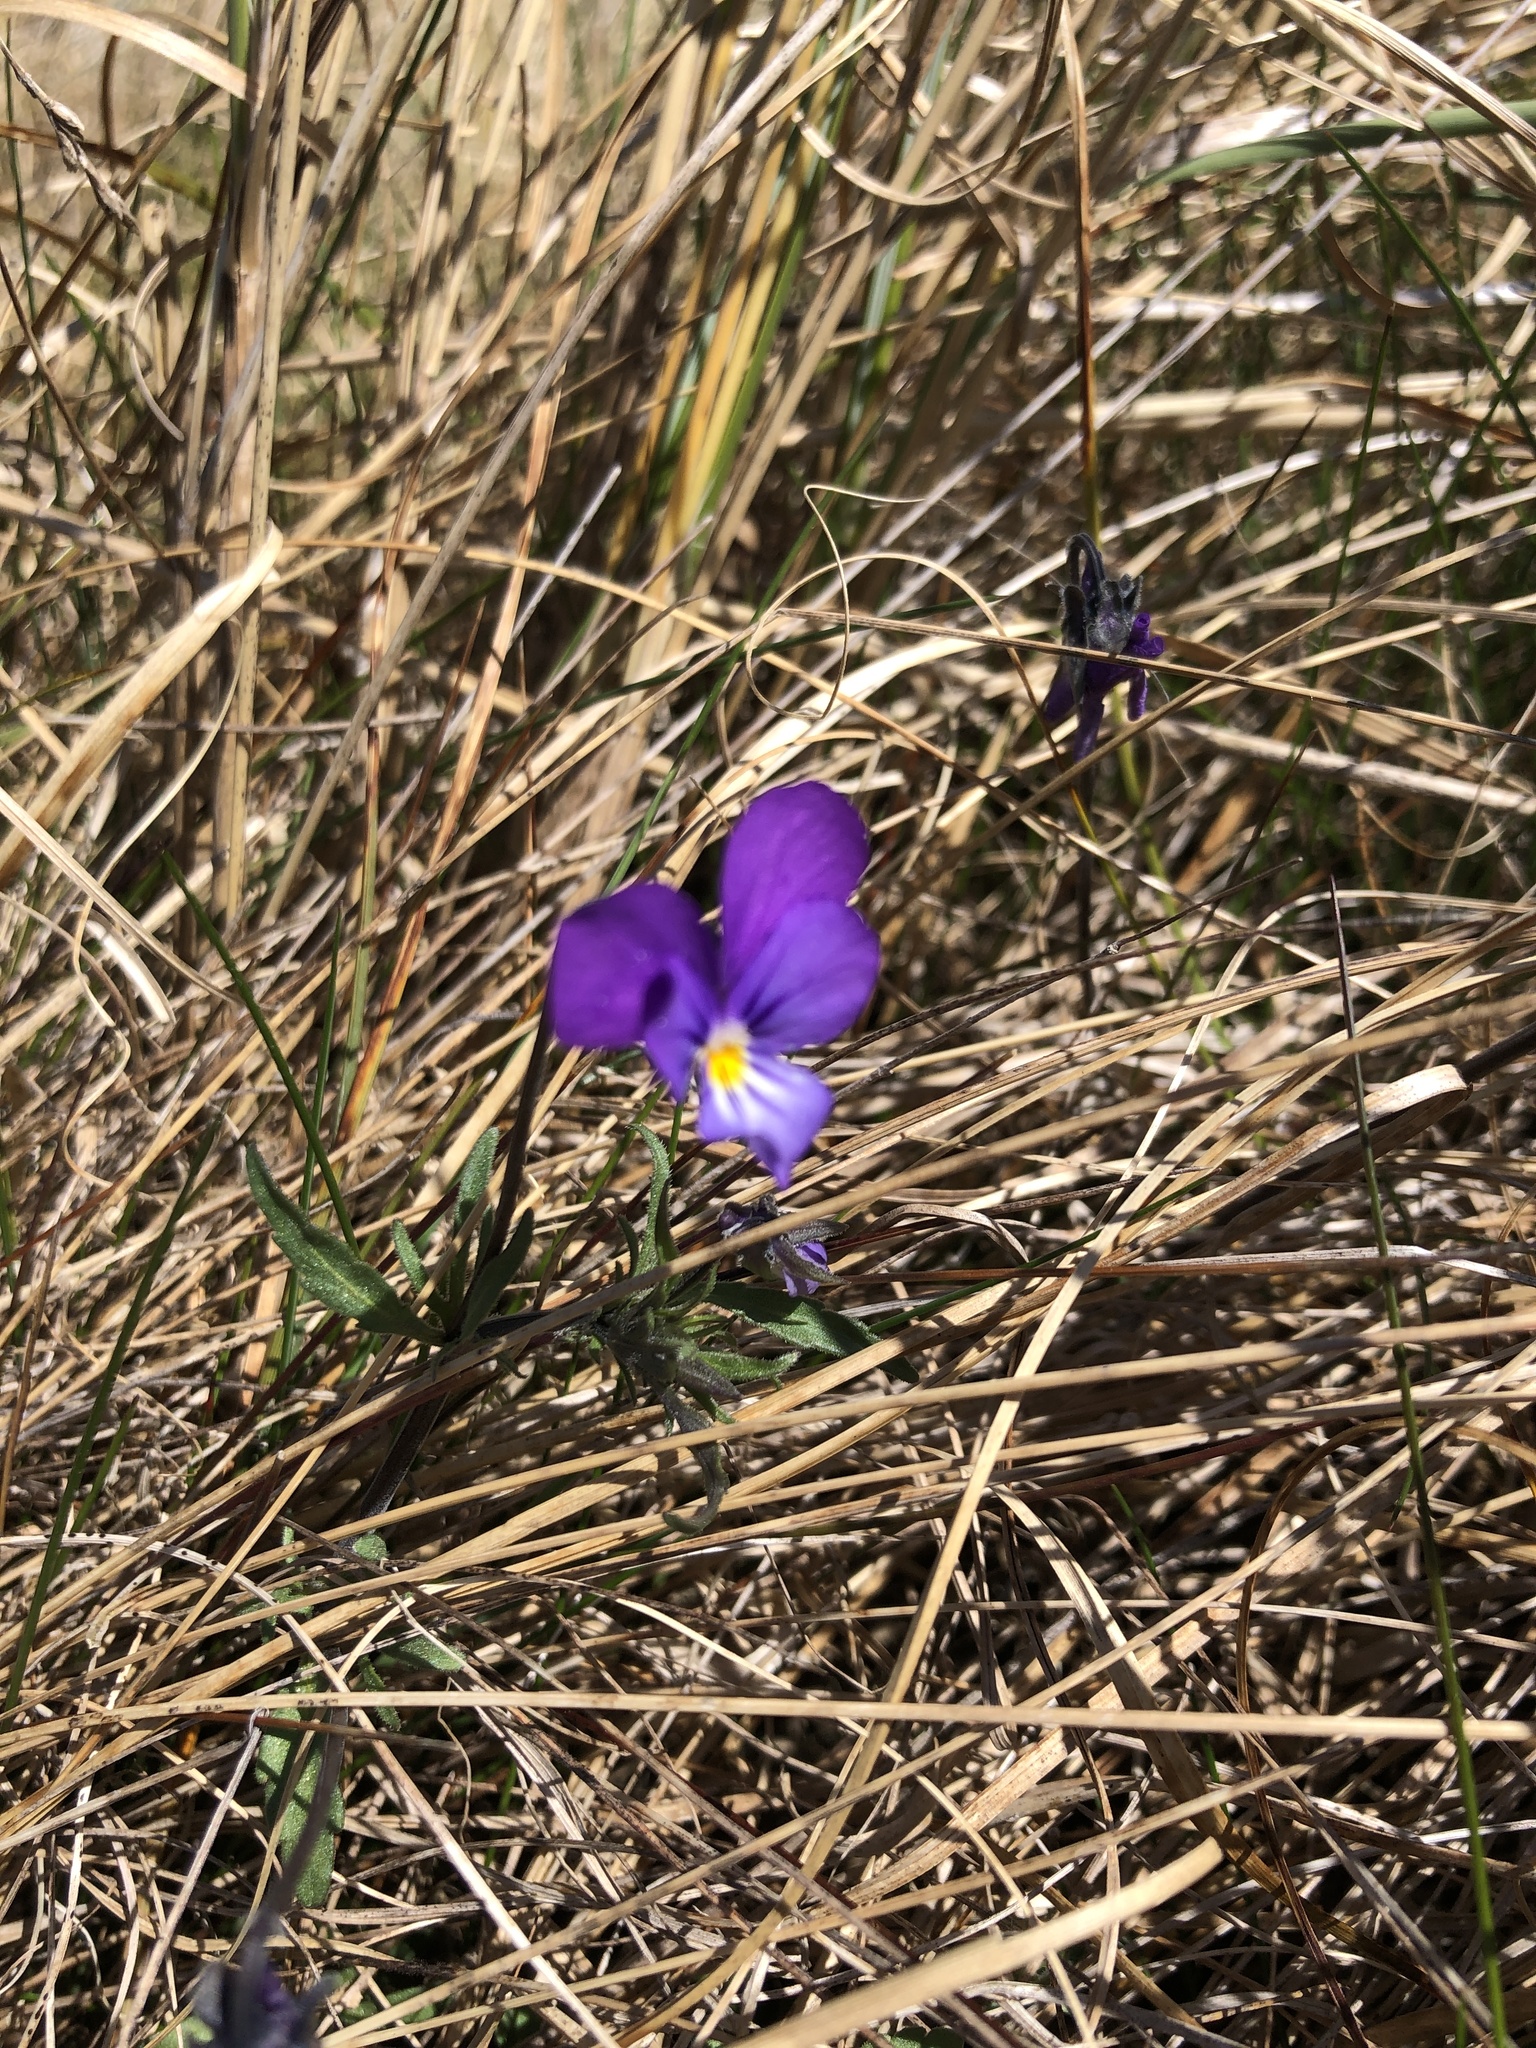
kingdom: Plantae
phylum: Tracheophyta
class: Magnoliopsida
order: Malpighiales
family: Violaceae
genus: Viola
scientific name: Viola tricolor
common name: Pansy
